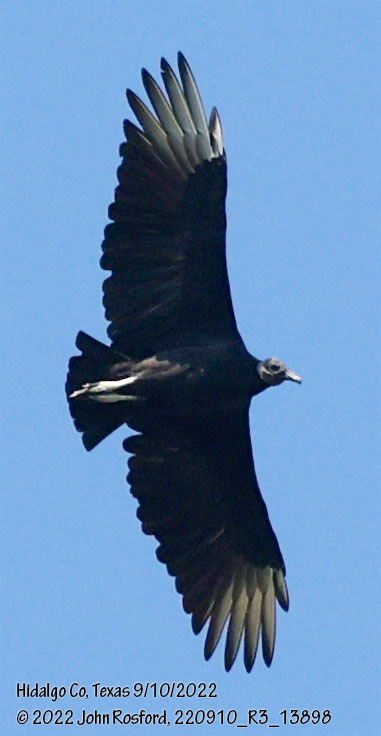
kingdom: Animalia
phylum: Chordata
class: Aves
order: Accipitriformes
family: Cathartidae
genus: Coragyps
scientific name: Coragyps atratus
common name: Black vulture
